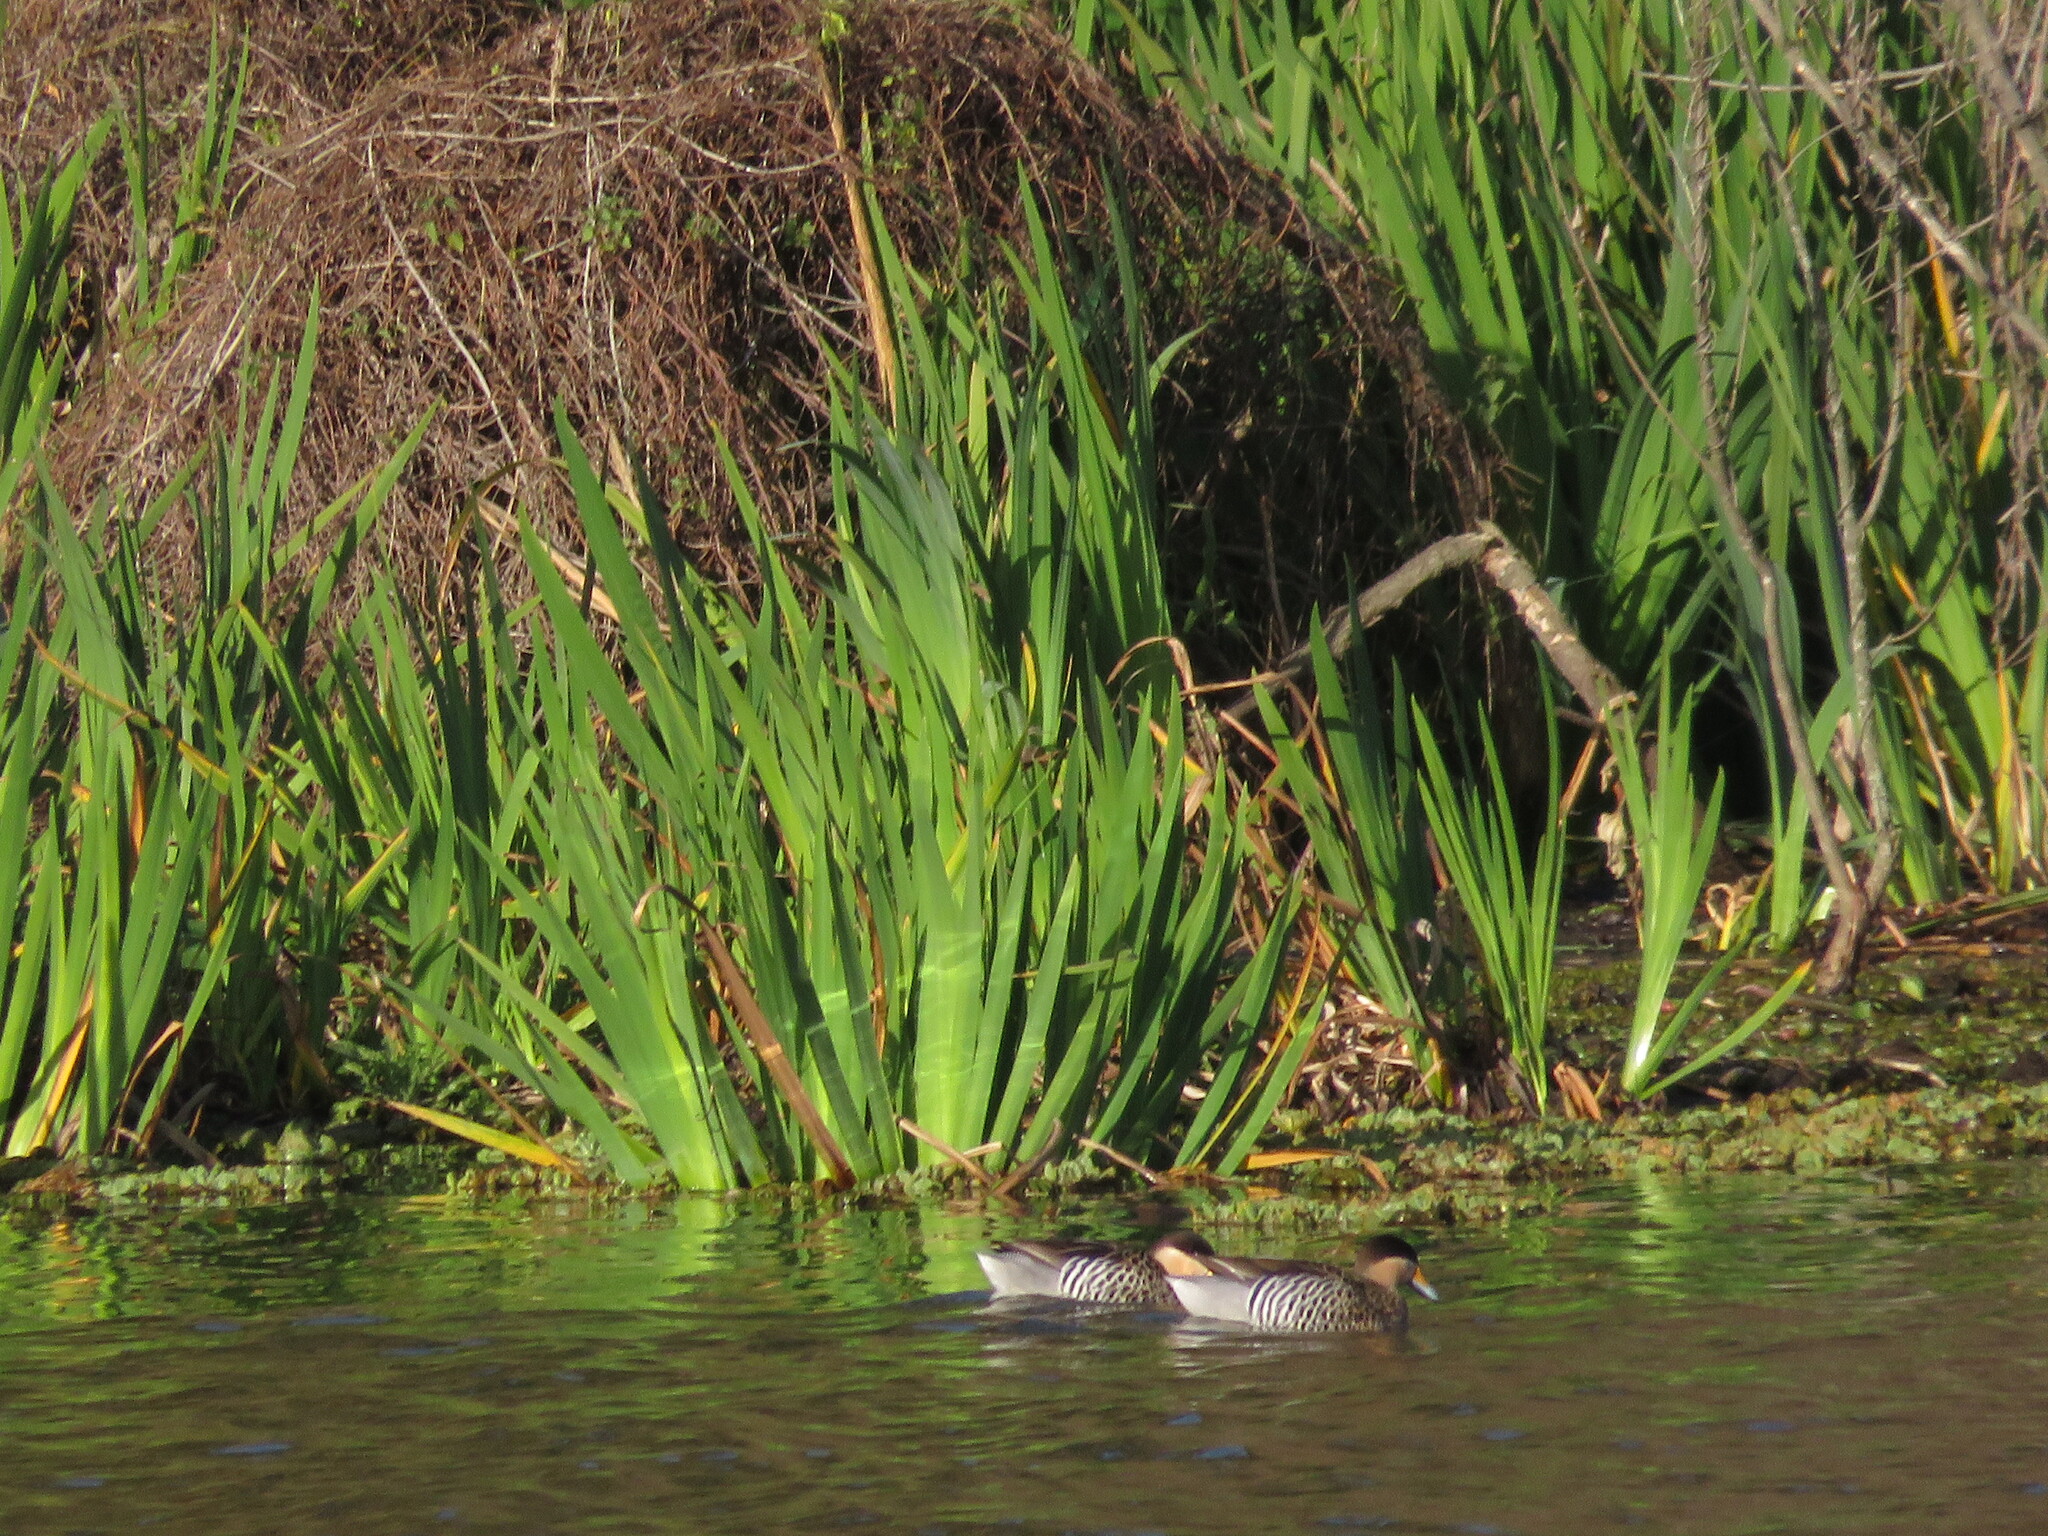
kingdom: Animalia
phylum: Chordata
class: Aves
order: Anseriformes
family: Anatidae
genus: Spatula
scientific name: Spatula versicolor
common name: Silver teal
